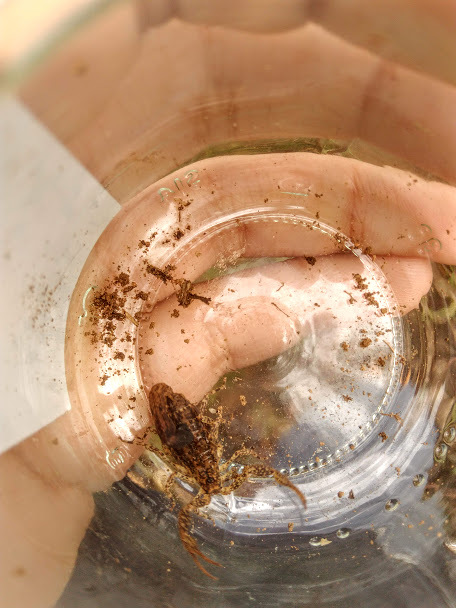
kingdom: Animalia
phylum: Arthropoda
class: Arachnida
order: Scorpiones
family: Buthidae
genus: Tityus
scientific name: Tityus columbianus
